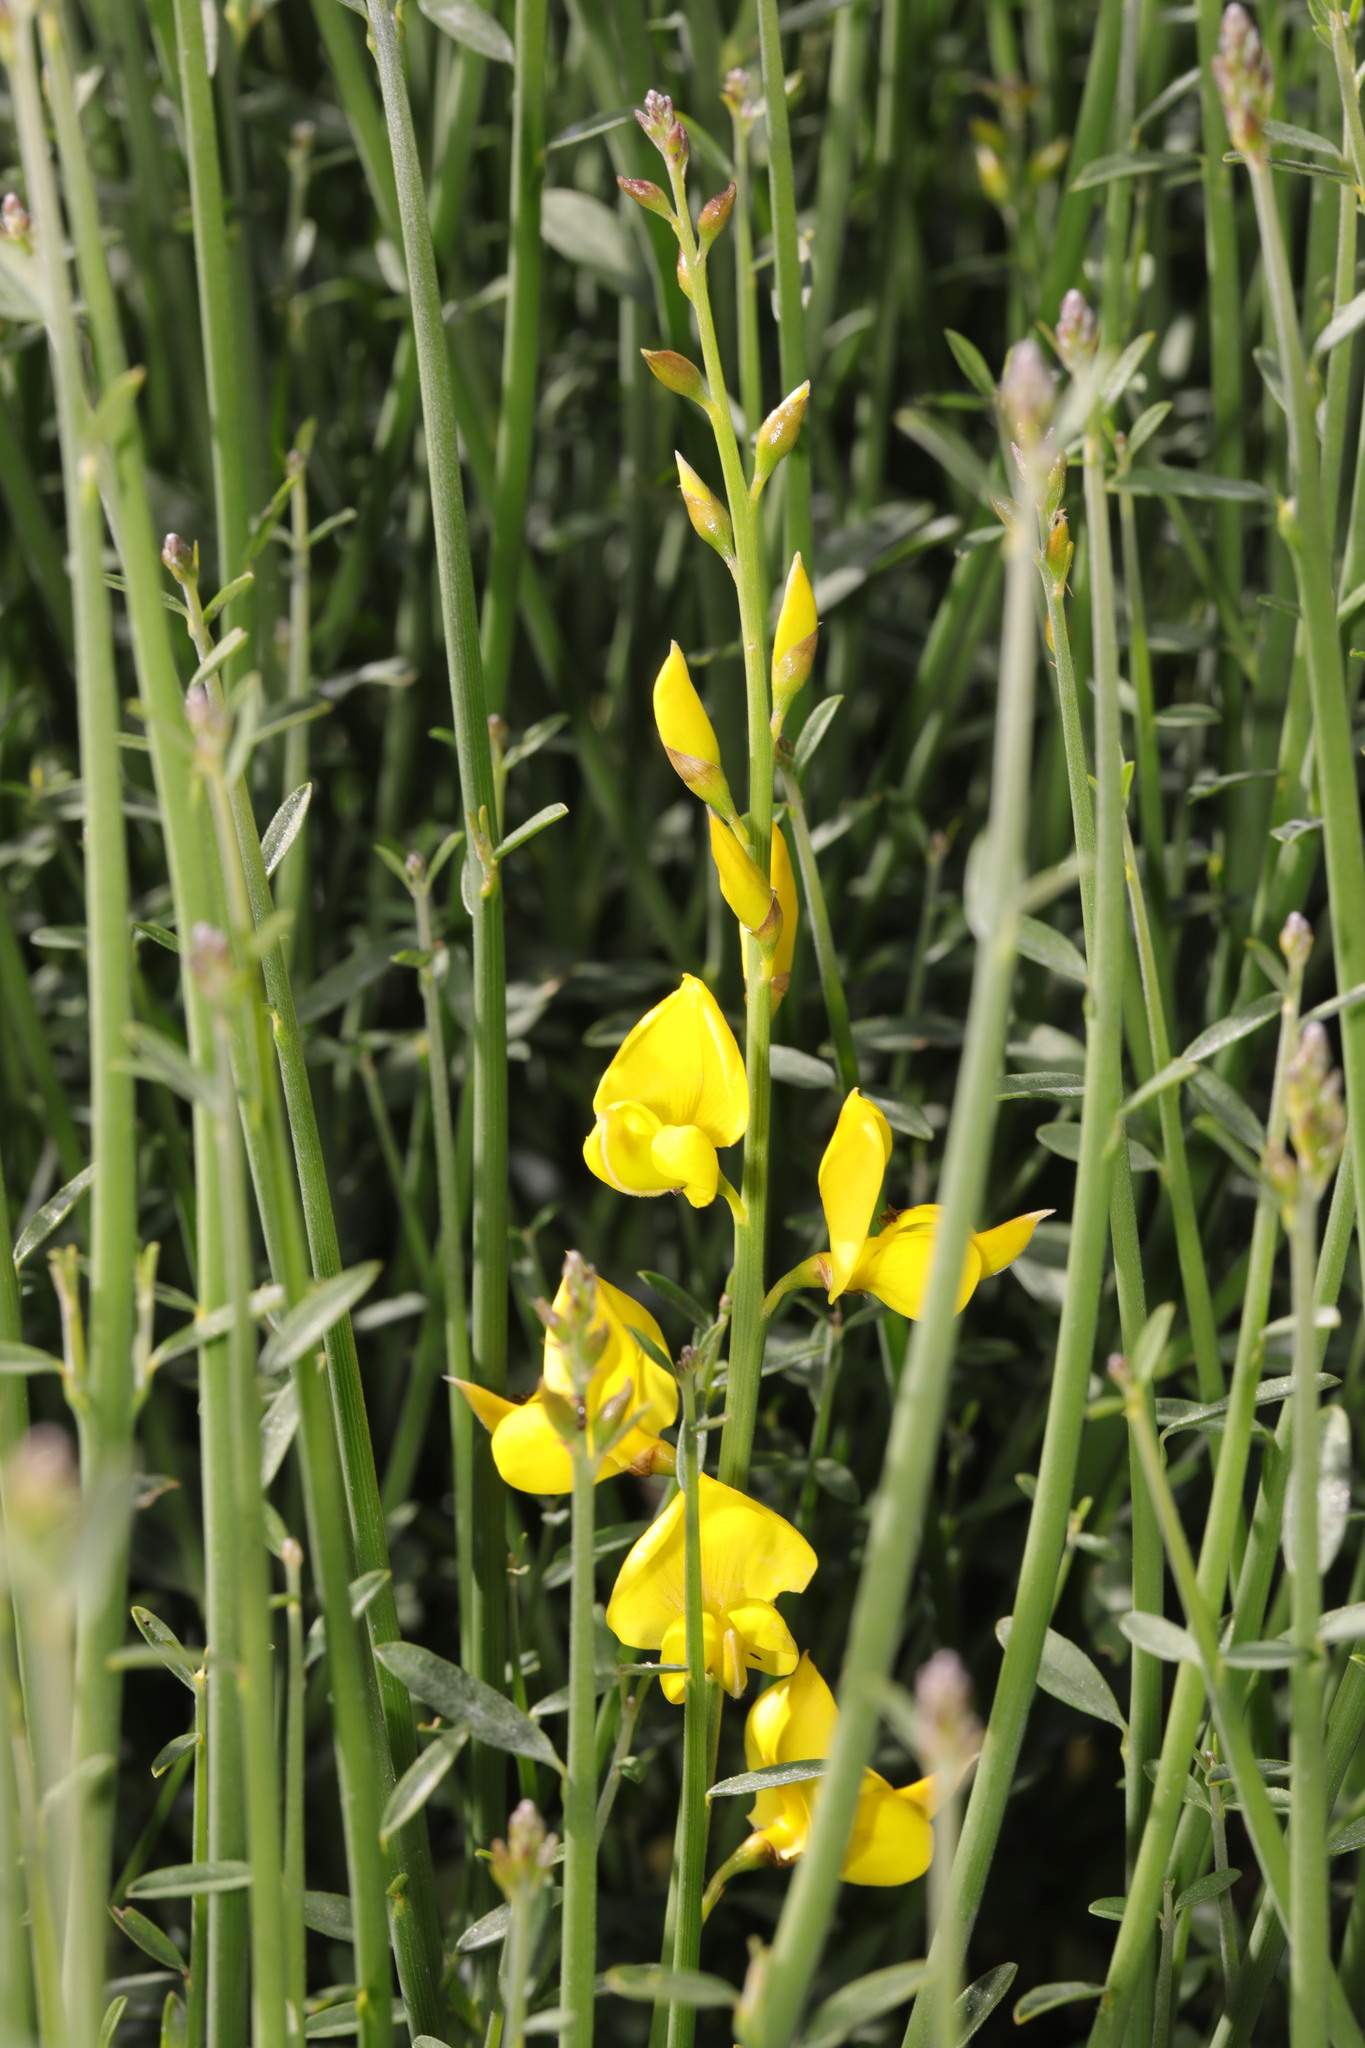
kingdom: Plantae
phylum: Tracheophyta
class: Magnoliopsida
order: Fabales
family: Fabaceae
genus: Spartium
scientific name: Spartium junceum
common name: Spanish broom
